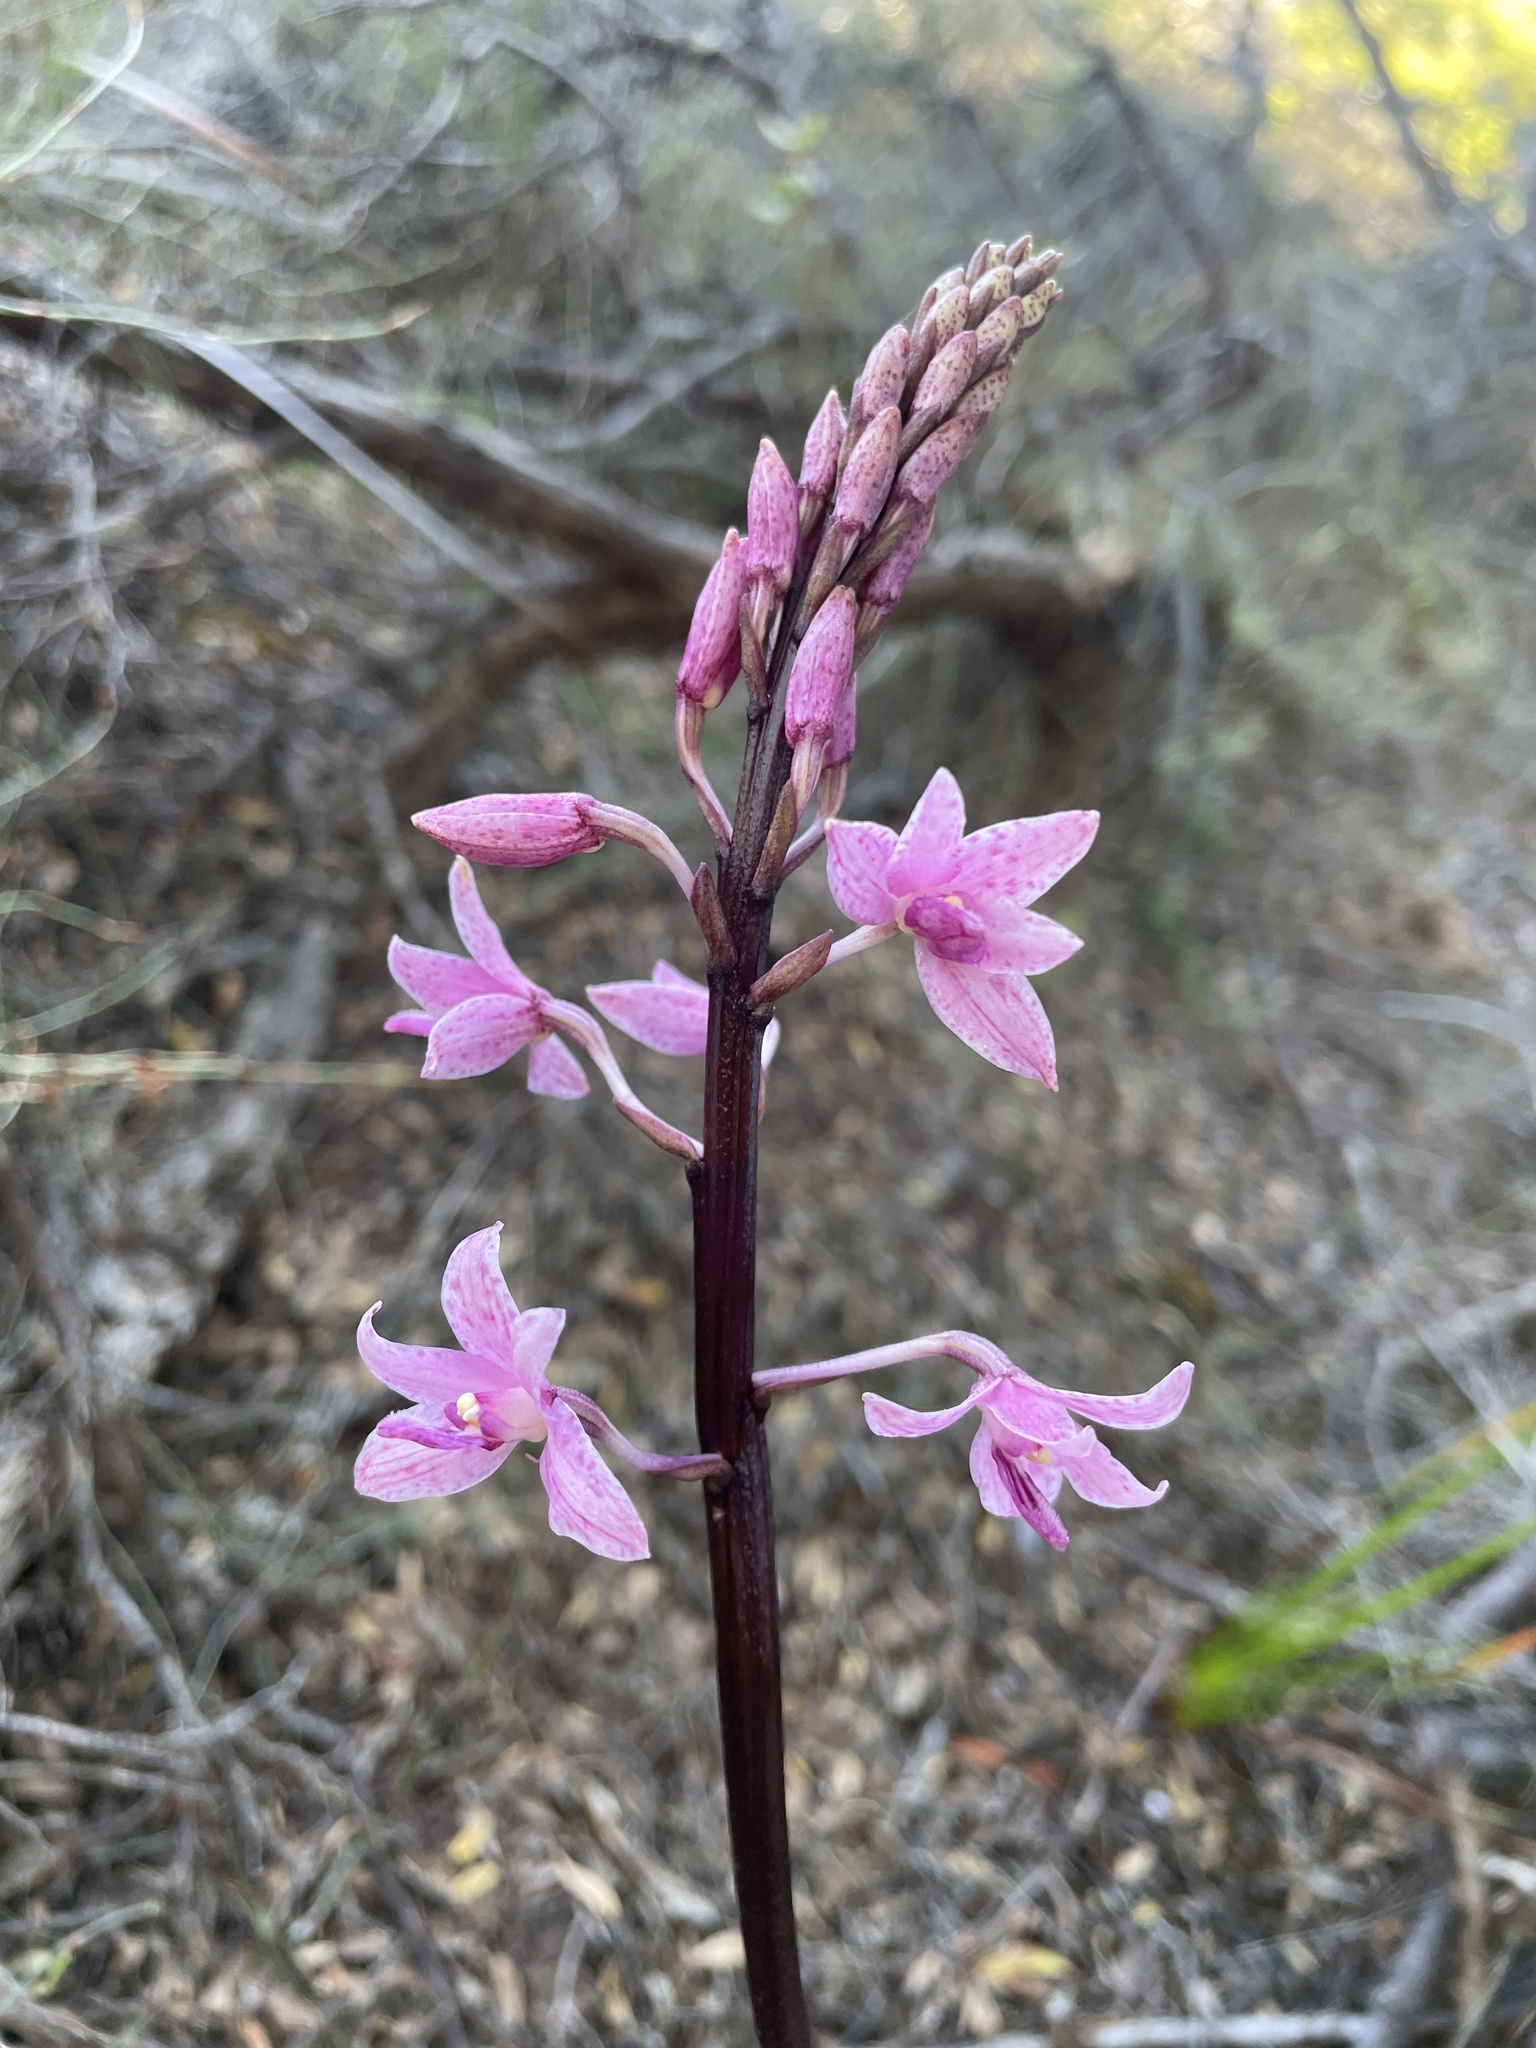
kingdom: Plantae
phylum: Tracheophyta
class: Liliopsida
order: Asparagales
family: Orchidaceae
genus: Dipodium
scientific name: Dipodium roseum
